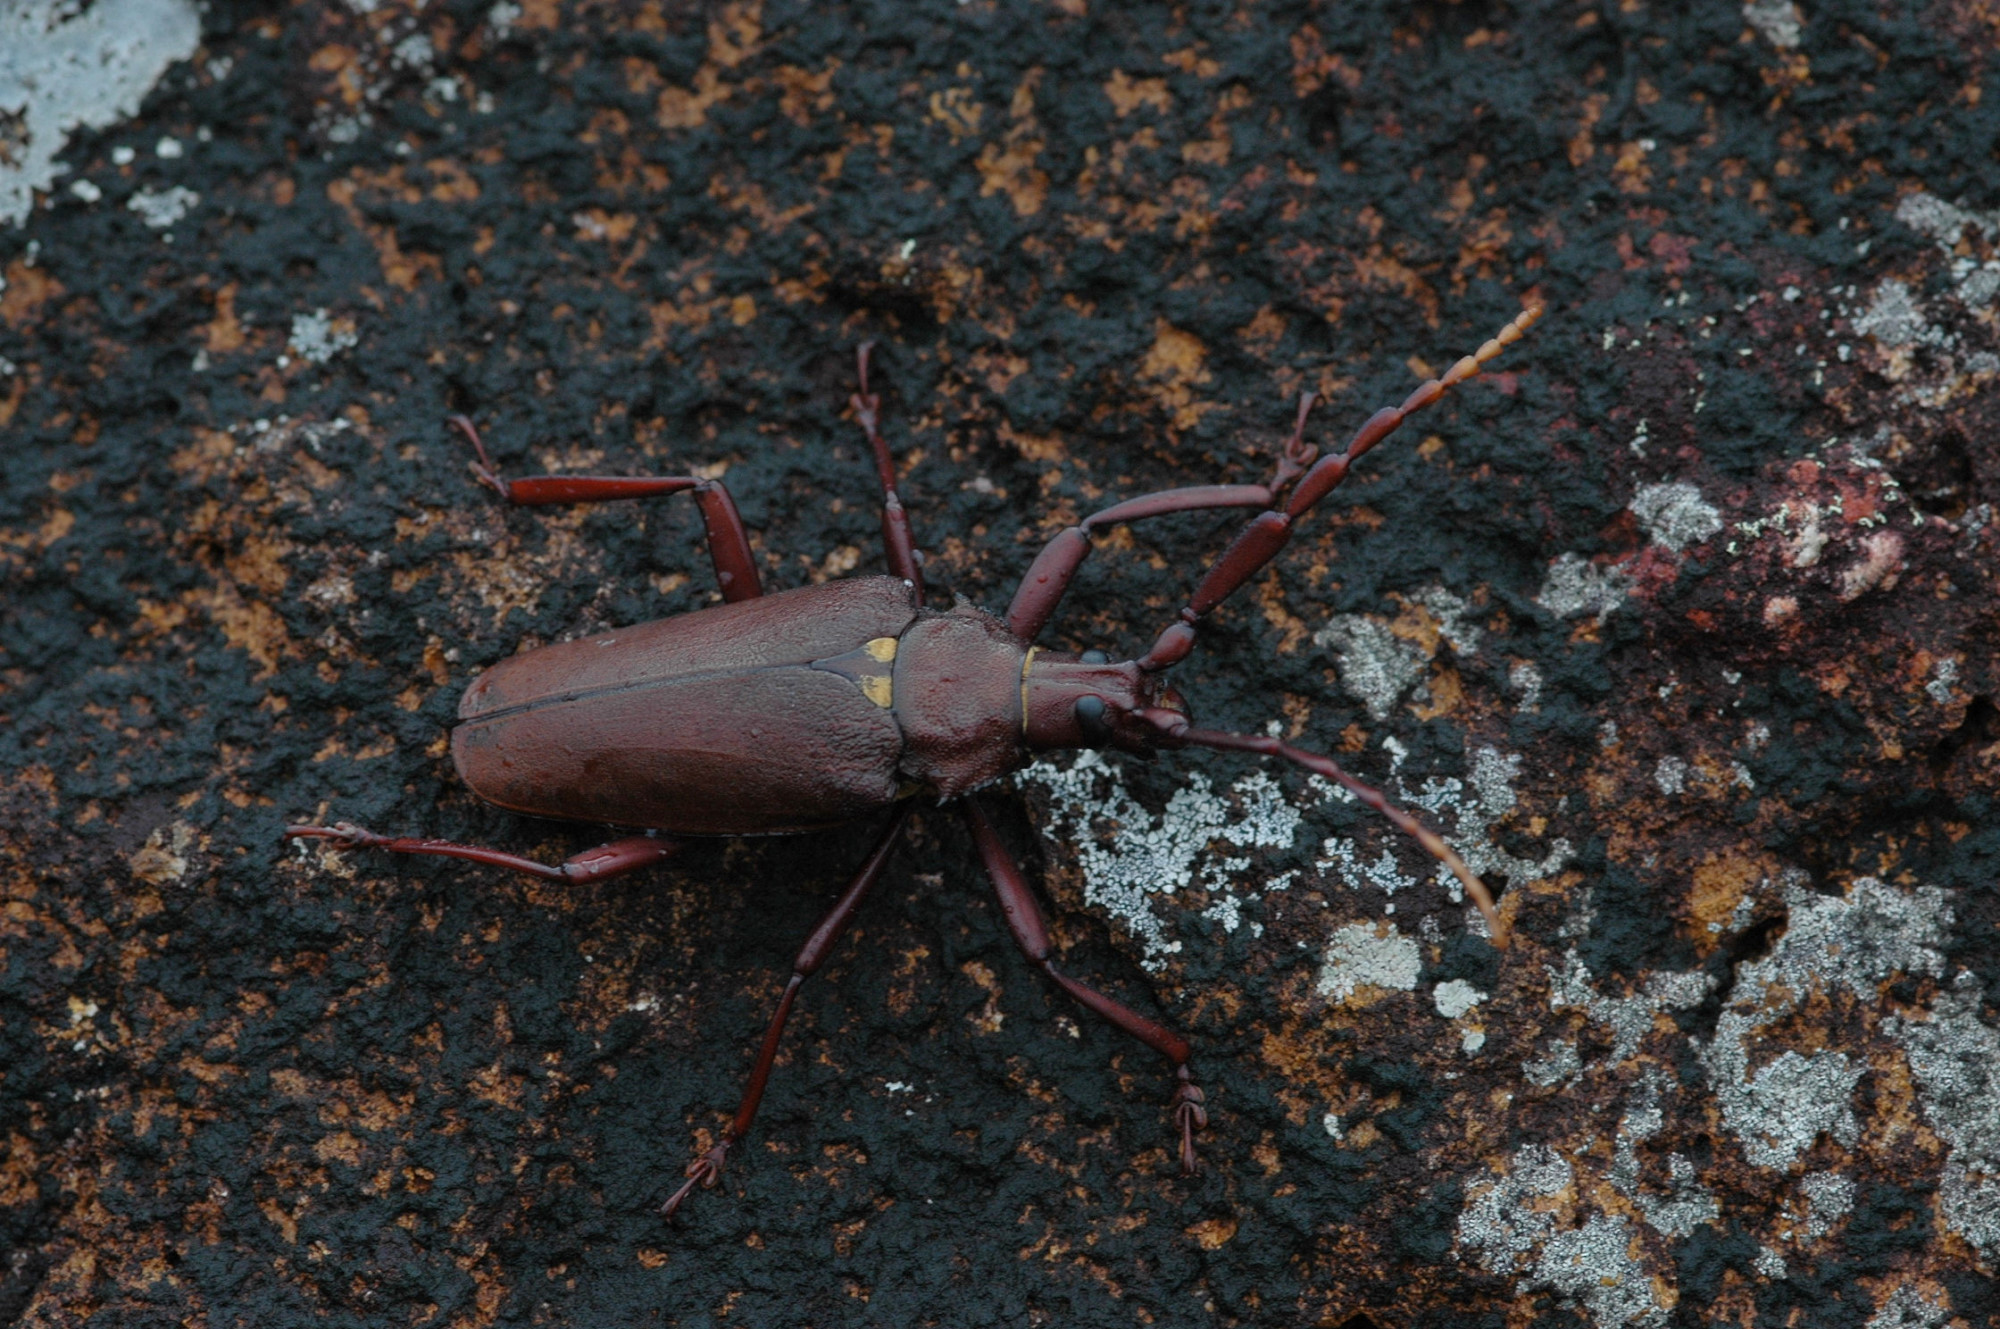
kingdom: Animalia
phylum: Arthropoda
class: Insecta
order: Coleoptera
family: Cerambycidae
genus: Praemallaspis
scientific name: Praemallaspis rhombodera
